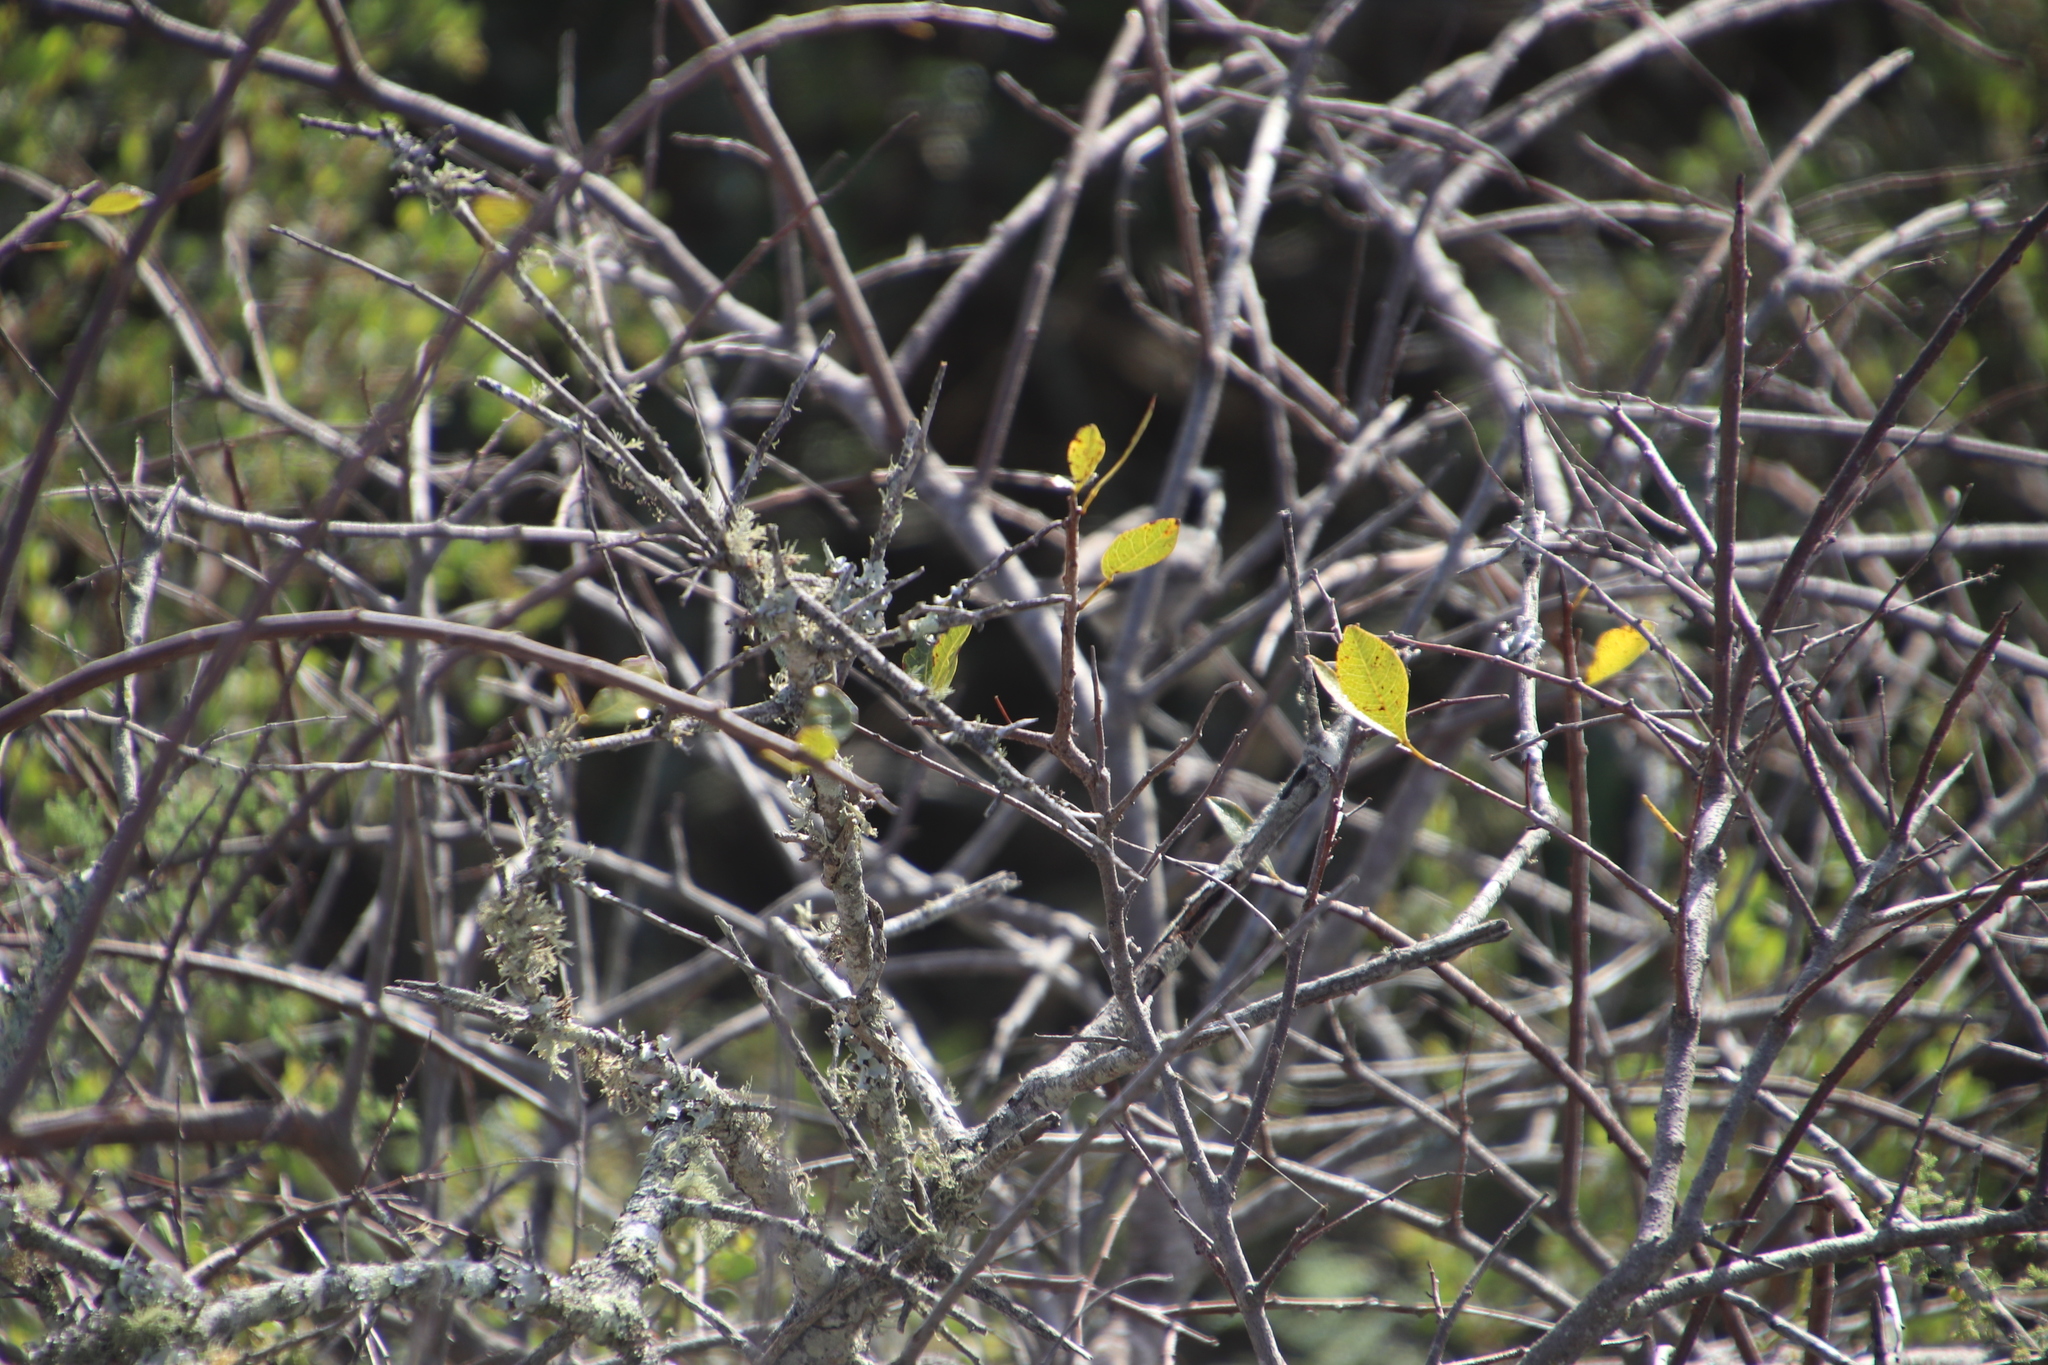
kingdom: Plantae
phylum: Tracheophyta
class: Magnoliopsida
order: Sapindales
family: Anacardiaceae
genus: Searsia
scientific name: Searsia laevigata
